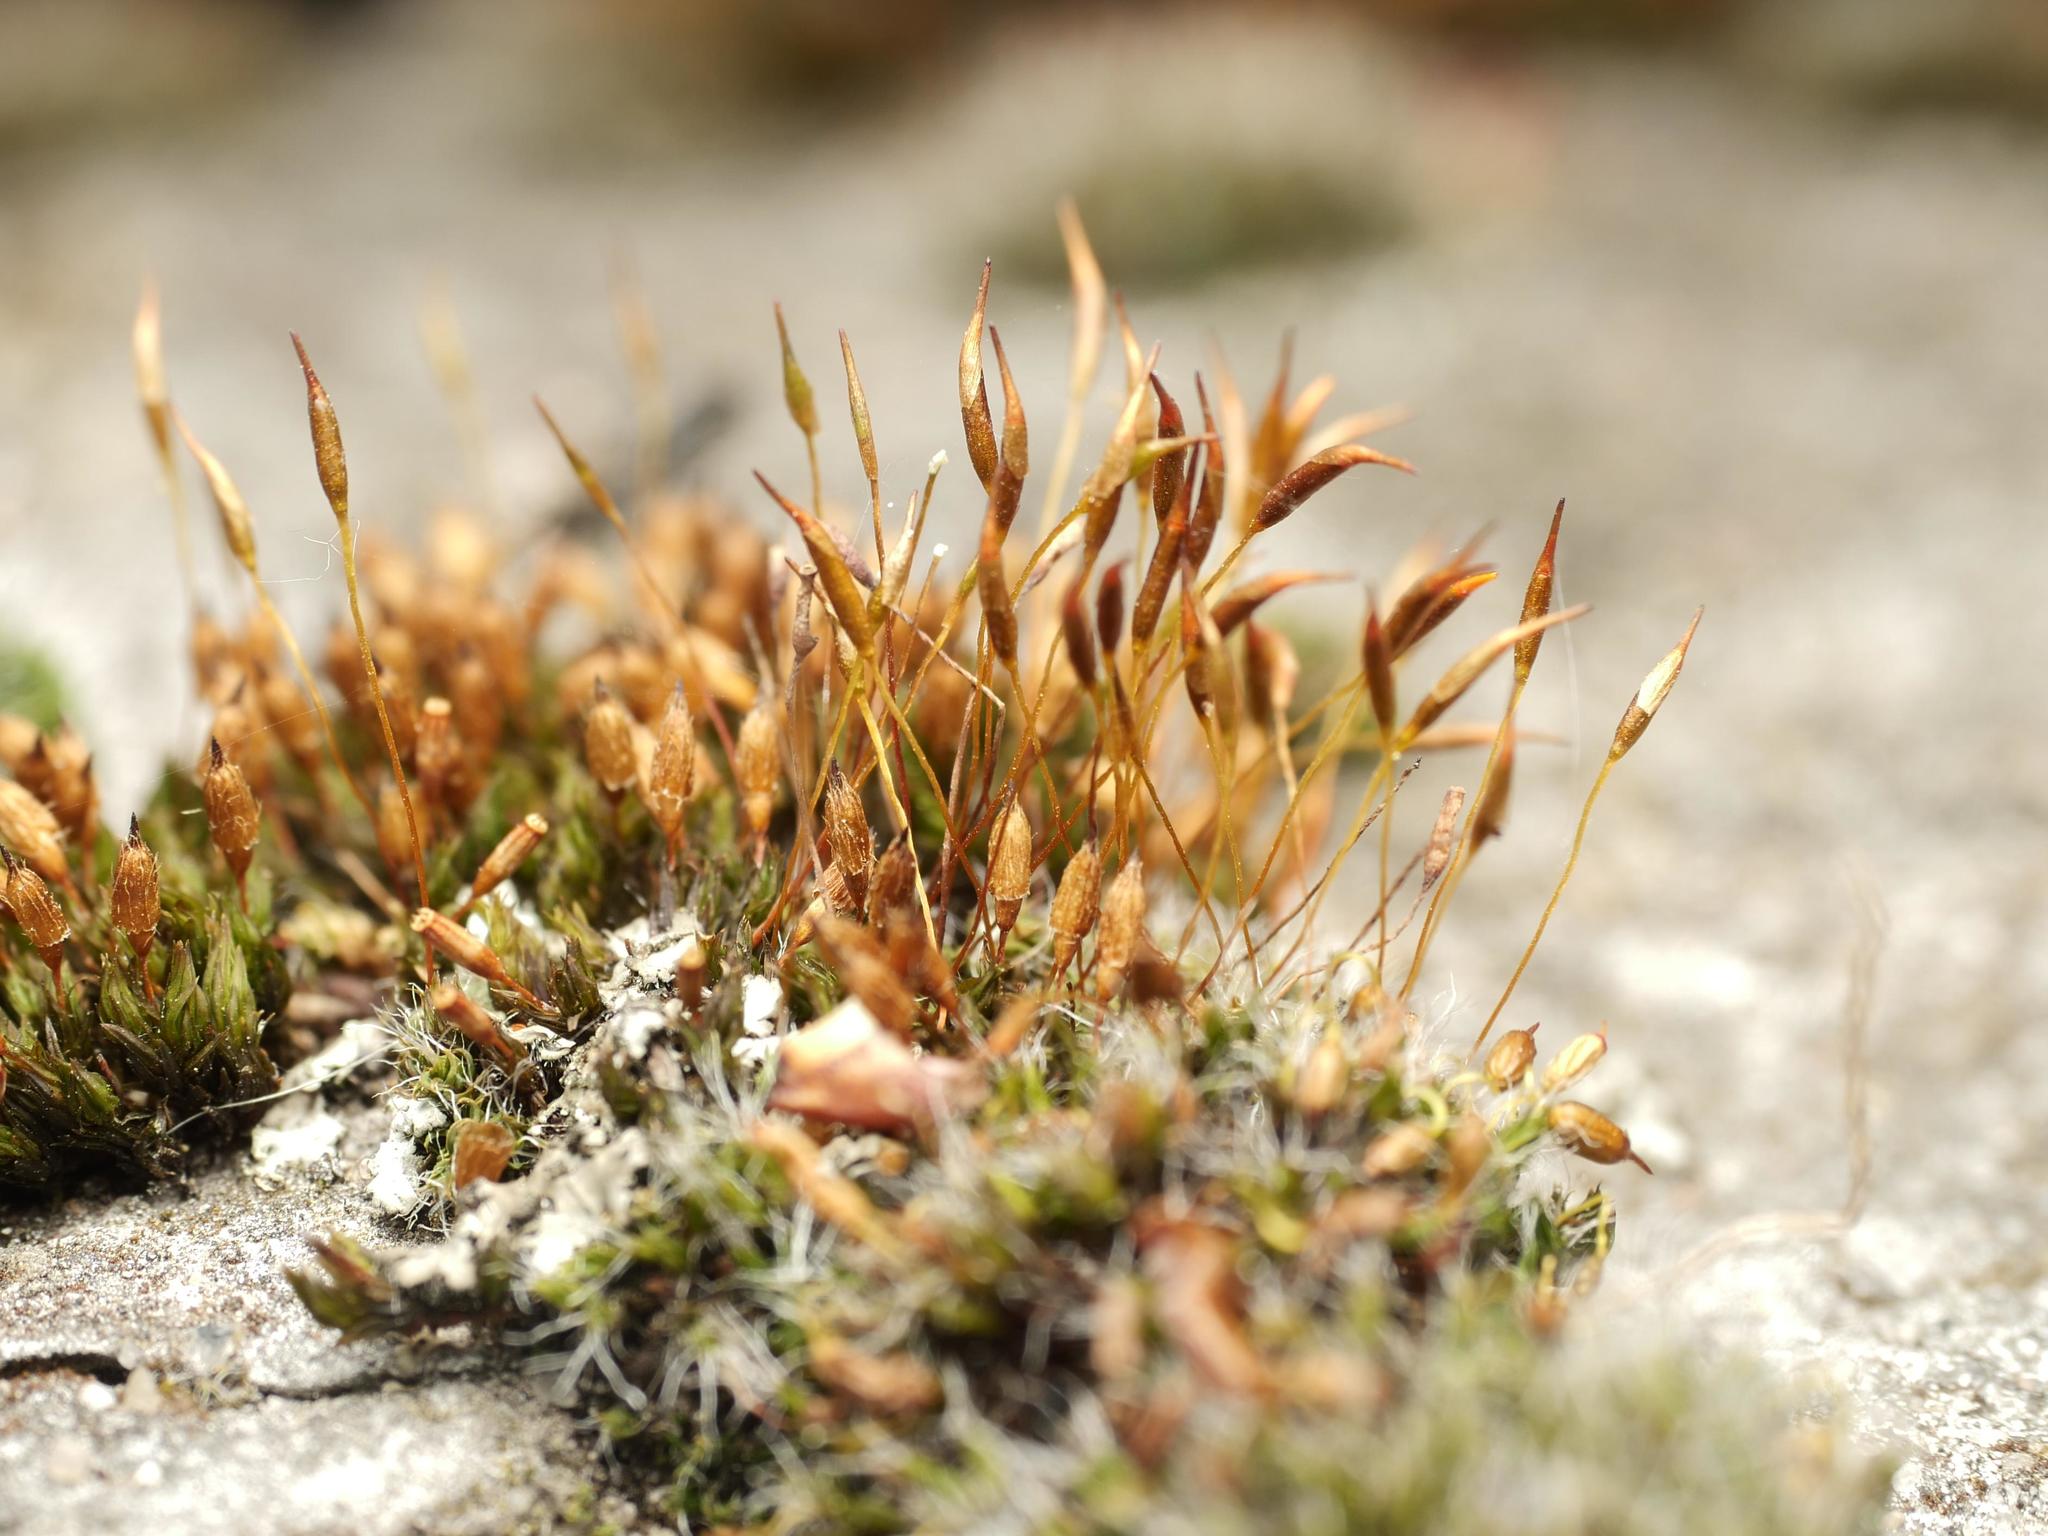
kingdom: Plantae
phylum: Bryophyta
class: Bryopsida
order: Pottiales
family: Pottiaceae
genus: Tortula
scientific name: Tortula muralis
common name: Wall screw-moss
